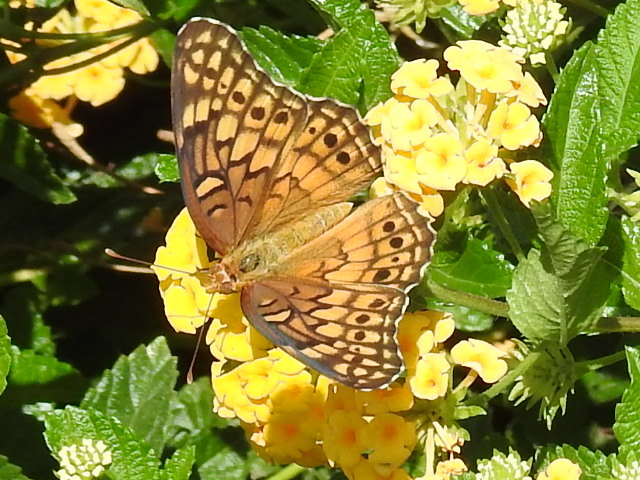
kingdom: Animalia
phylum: Arthropoda
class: Insecta
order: Lepidoptera
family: Nymphalidae
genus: Euptoieta
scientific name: Euptoieta claudia
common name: Variegated fritillary
